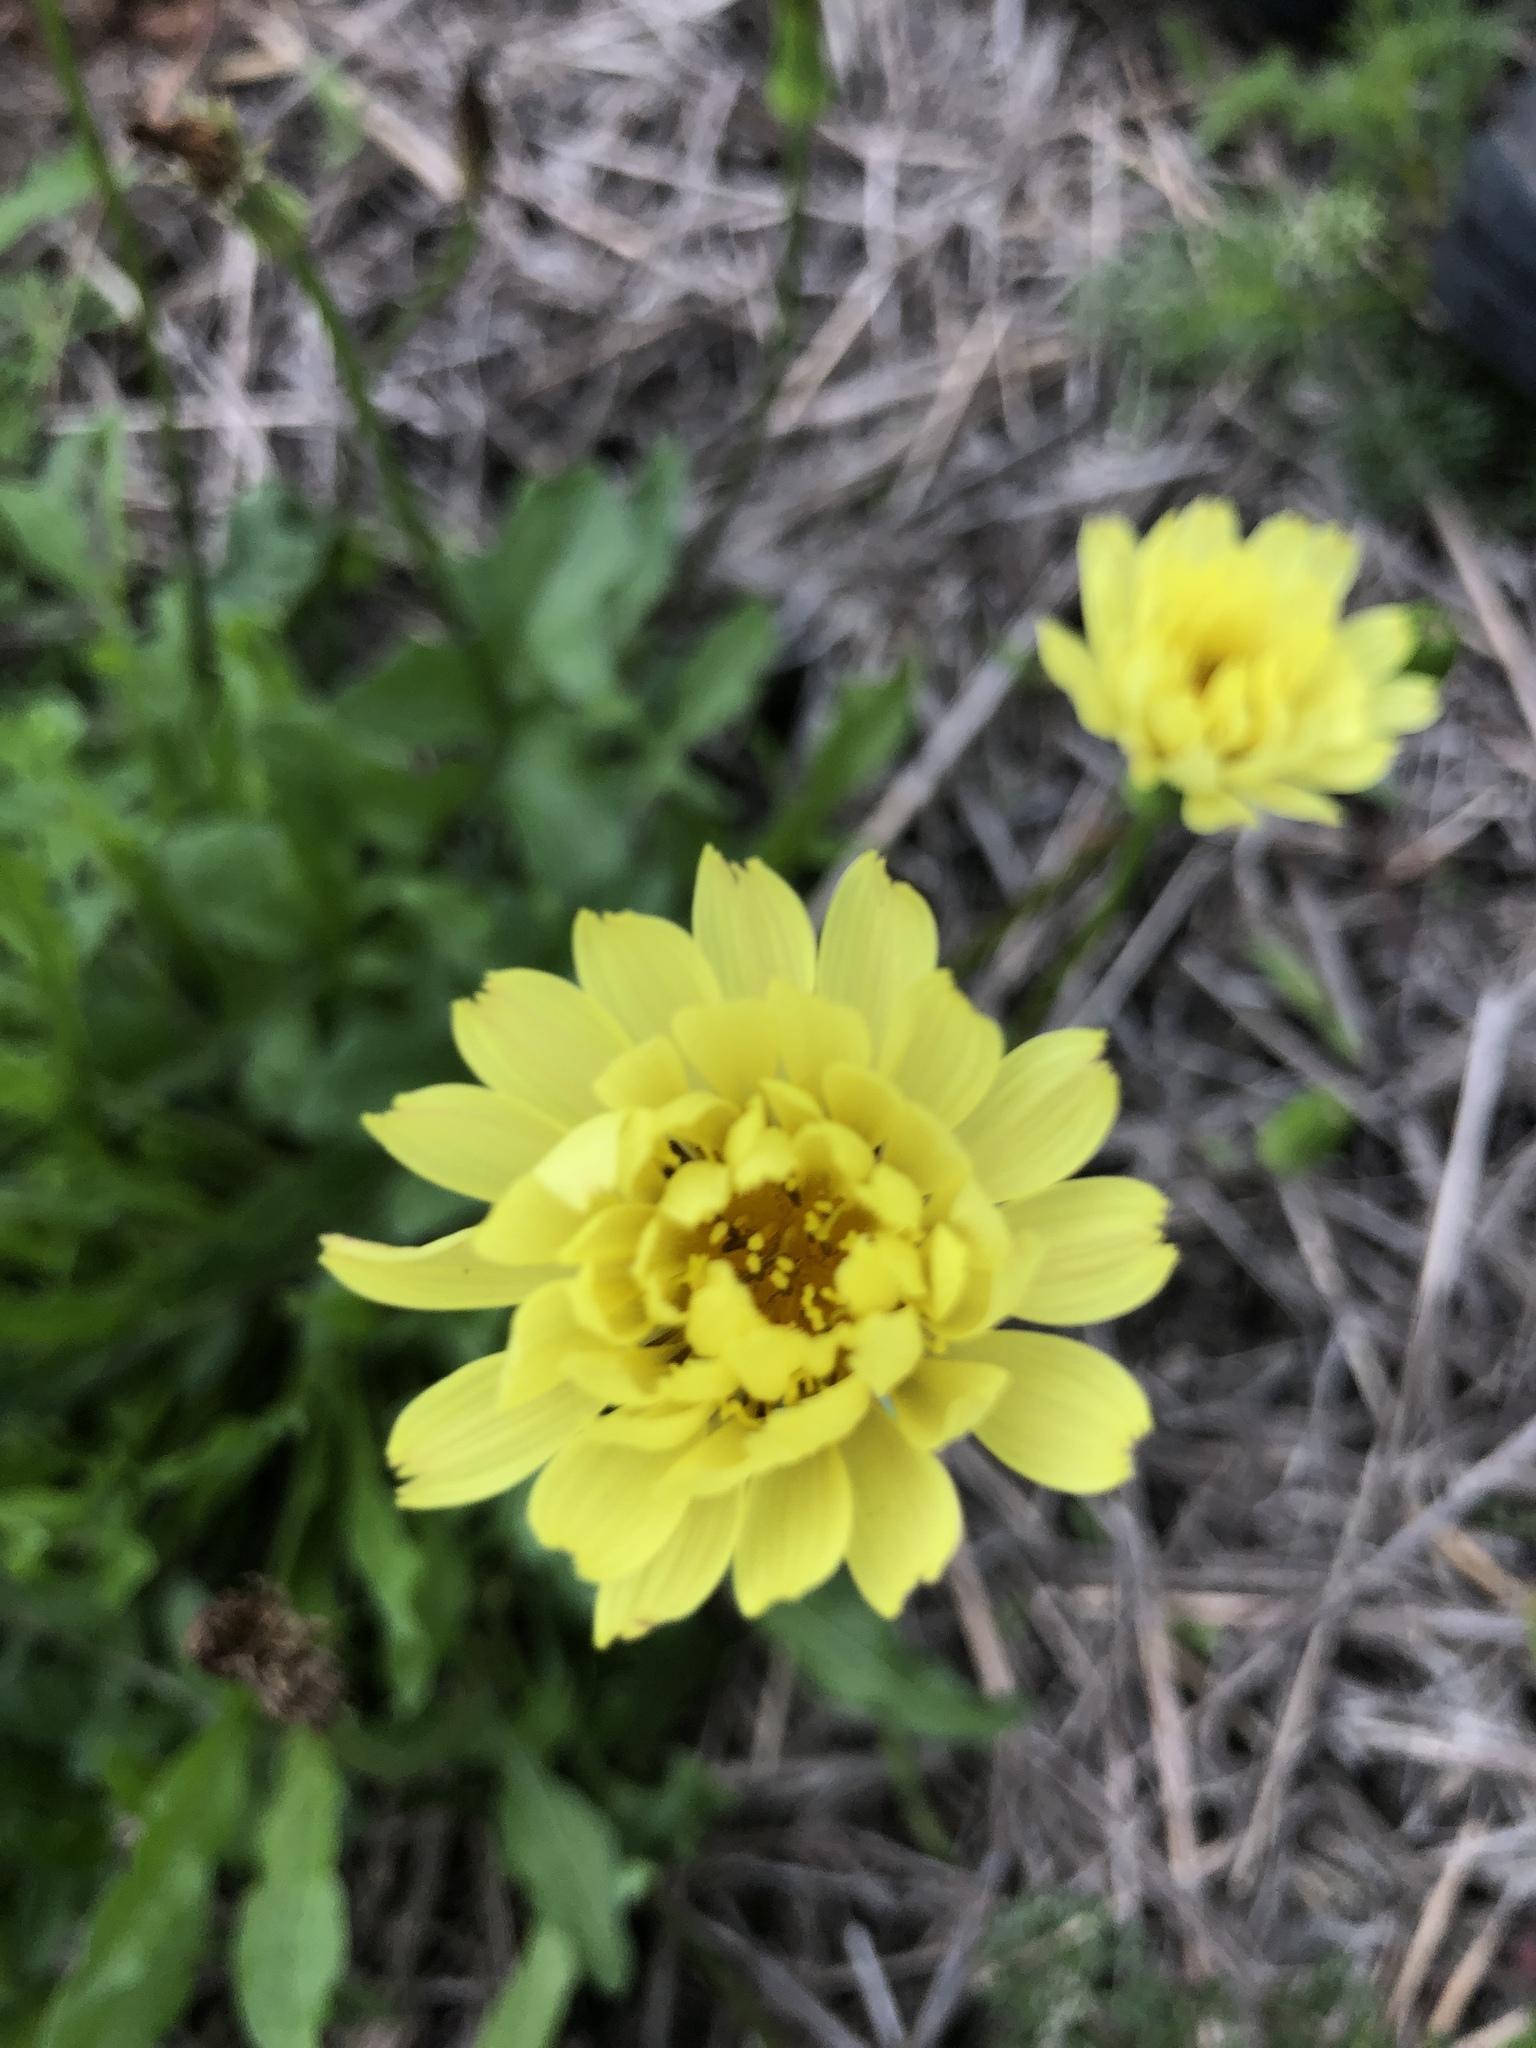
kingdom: Plantae
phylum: Tracheophyta
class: Magnoliopsida
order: Asterales
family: Asteraceae
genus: Pyrrhopappus
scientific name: Pyrrhopappus pauciflorus
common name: Texas false dandelion
